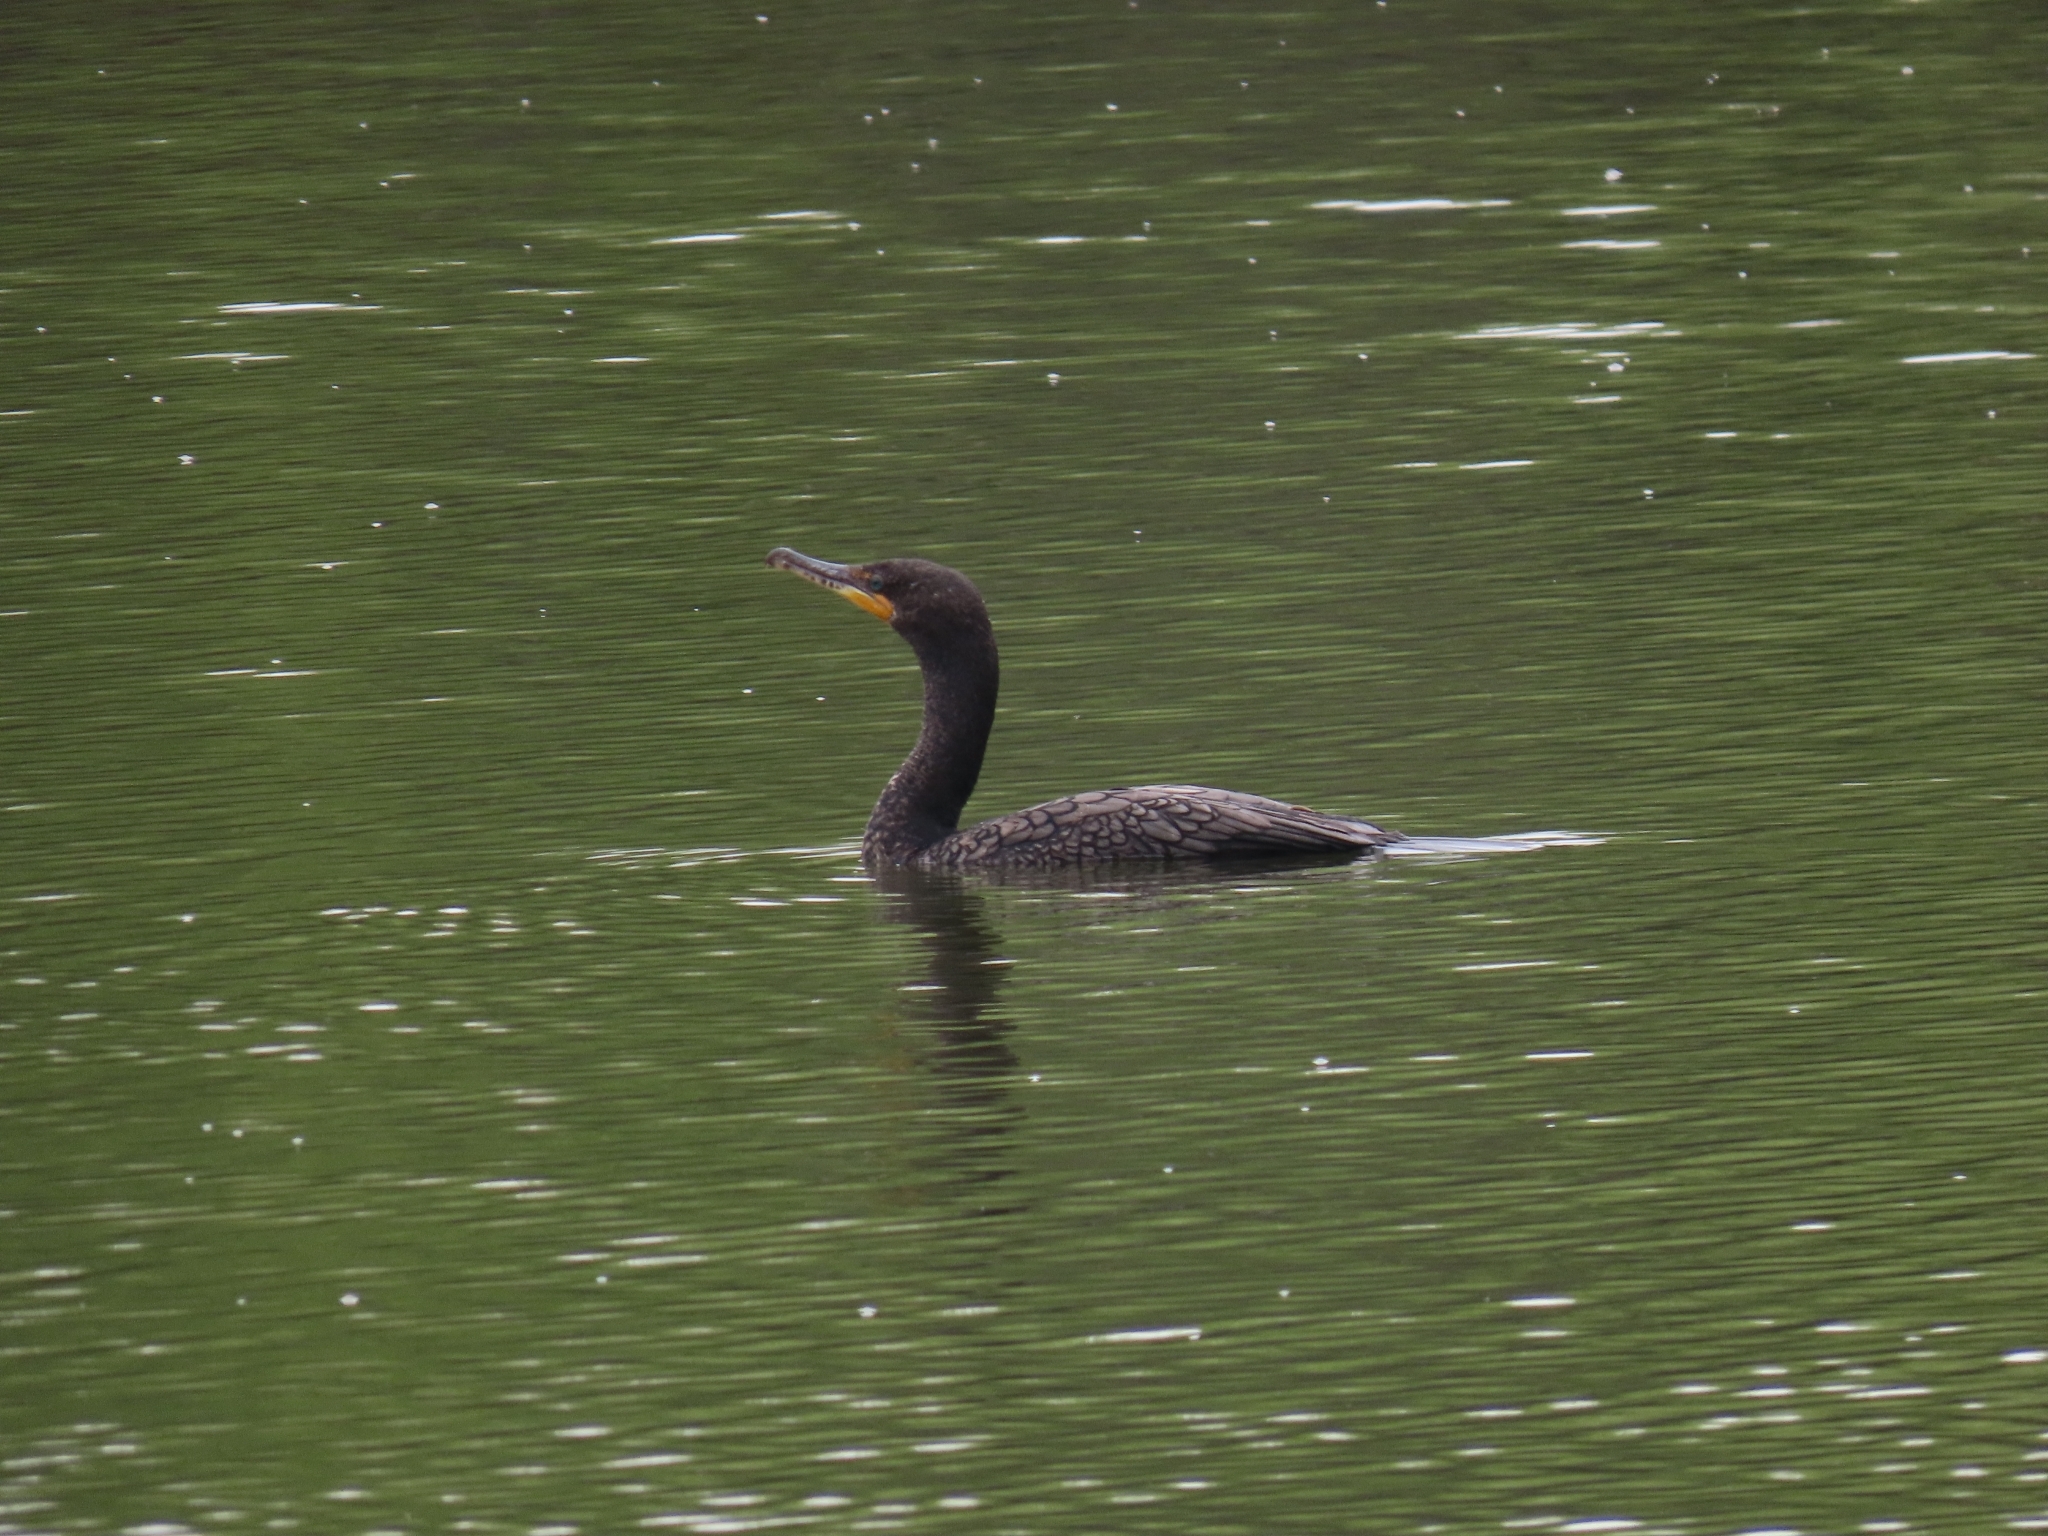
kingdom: Animalia
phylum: Chordata
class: Aves
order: Suliformes
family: Phalacrocoracidae
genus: Phalacrocorax
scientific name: Phalacrocorax auritus
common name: Double-crested cormorant
